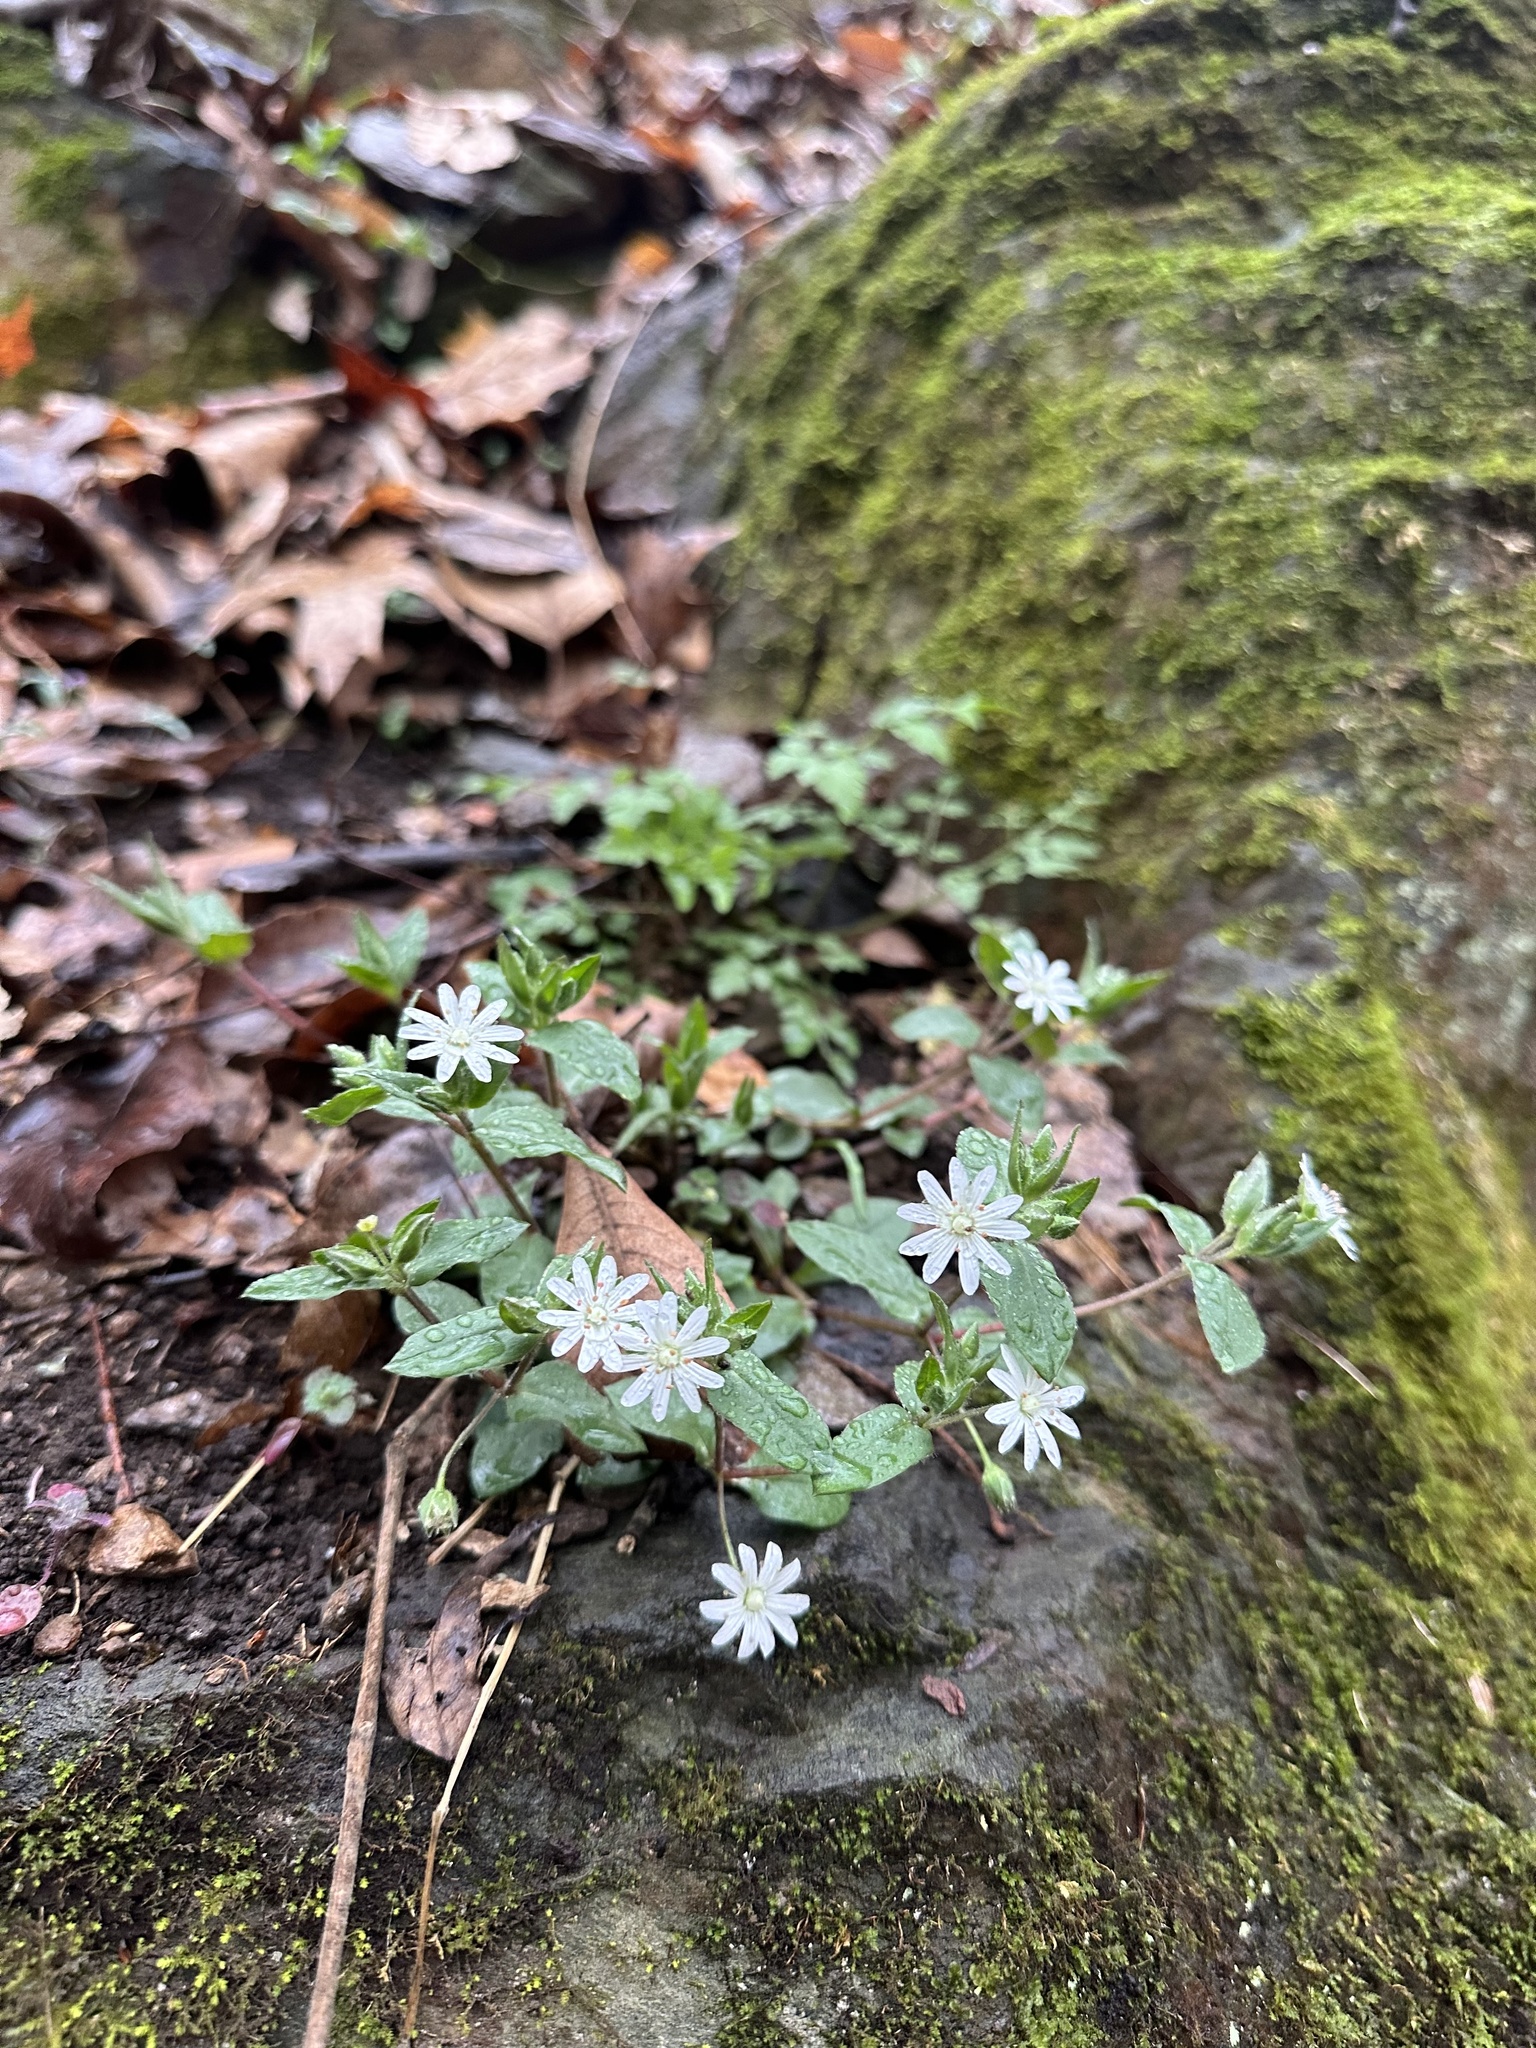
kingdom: Plantae
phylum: Tracheophyta
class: Magnoliopsida
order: Caryophyllales
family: Caryophyllaceae
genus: Stellaria
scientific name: Stellaria pubera
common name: Star chickweed
